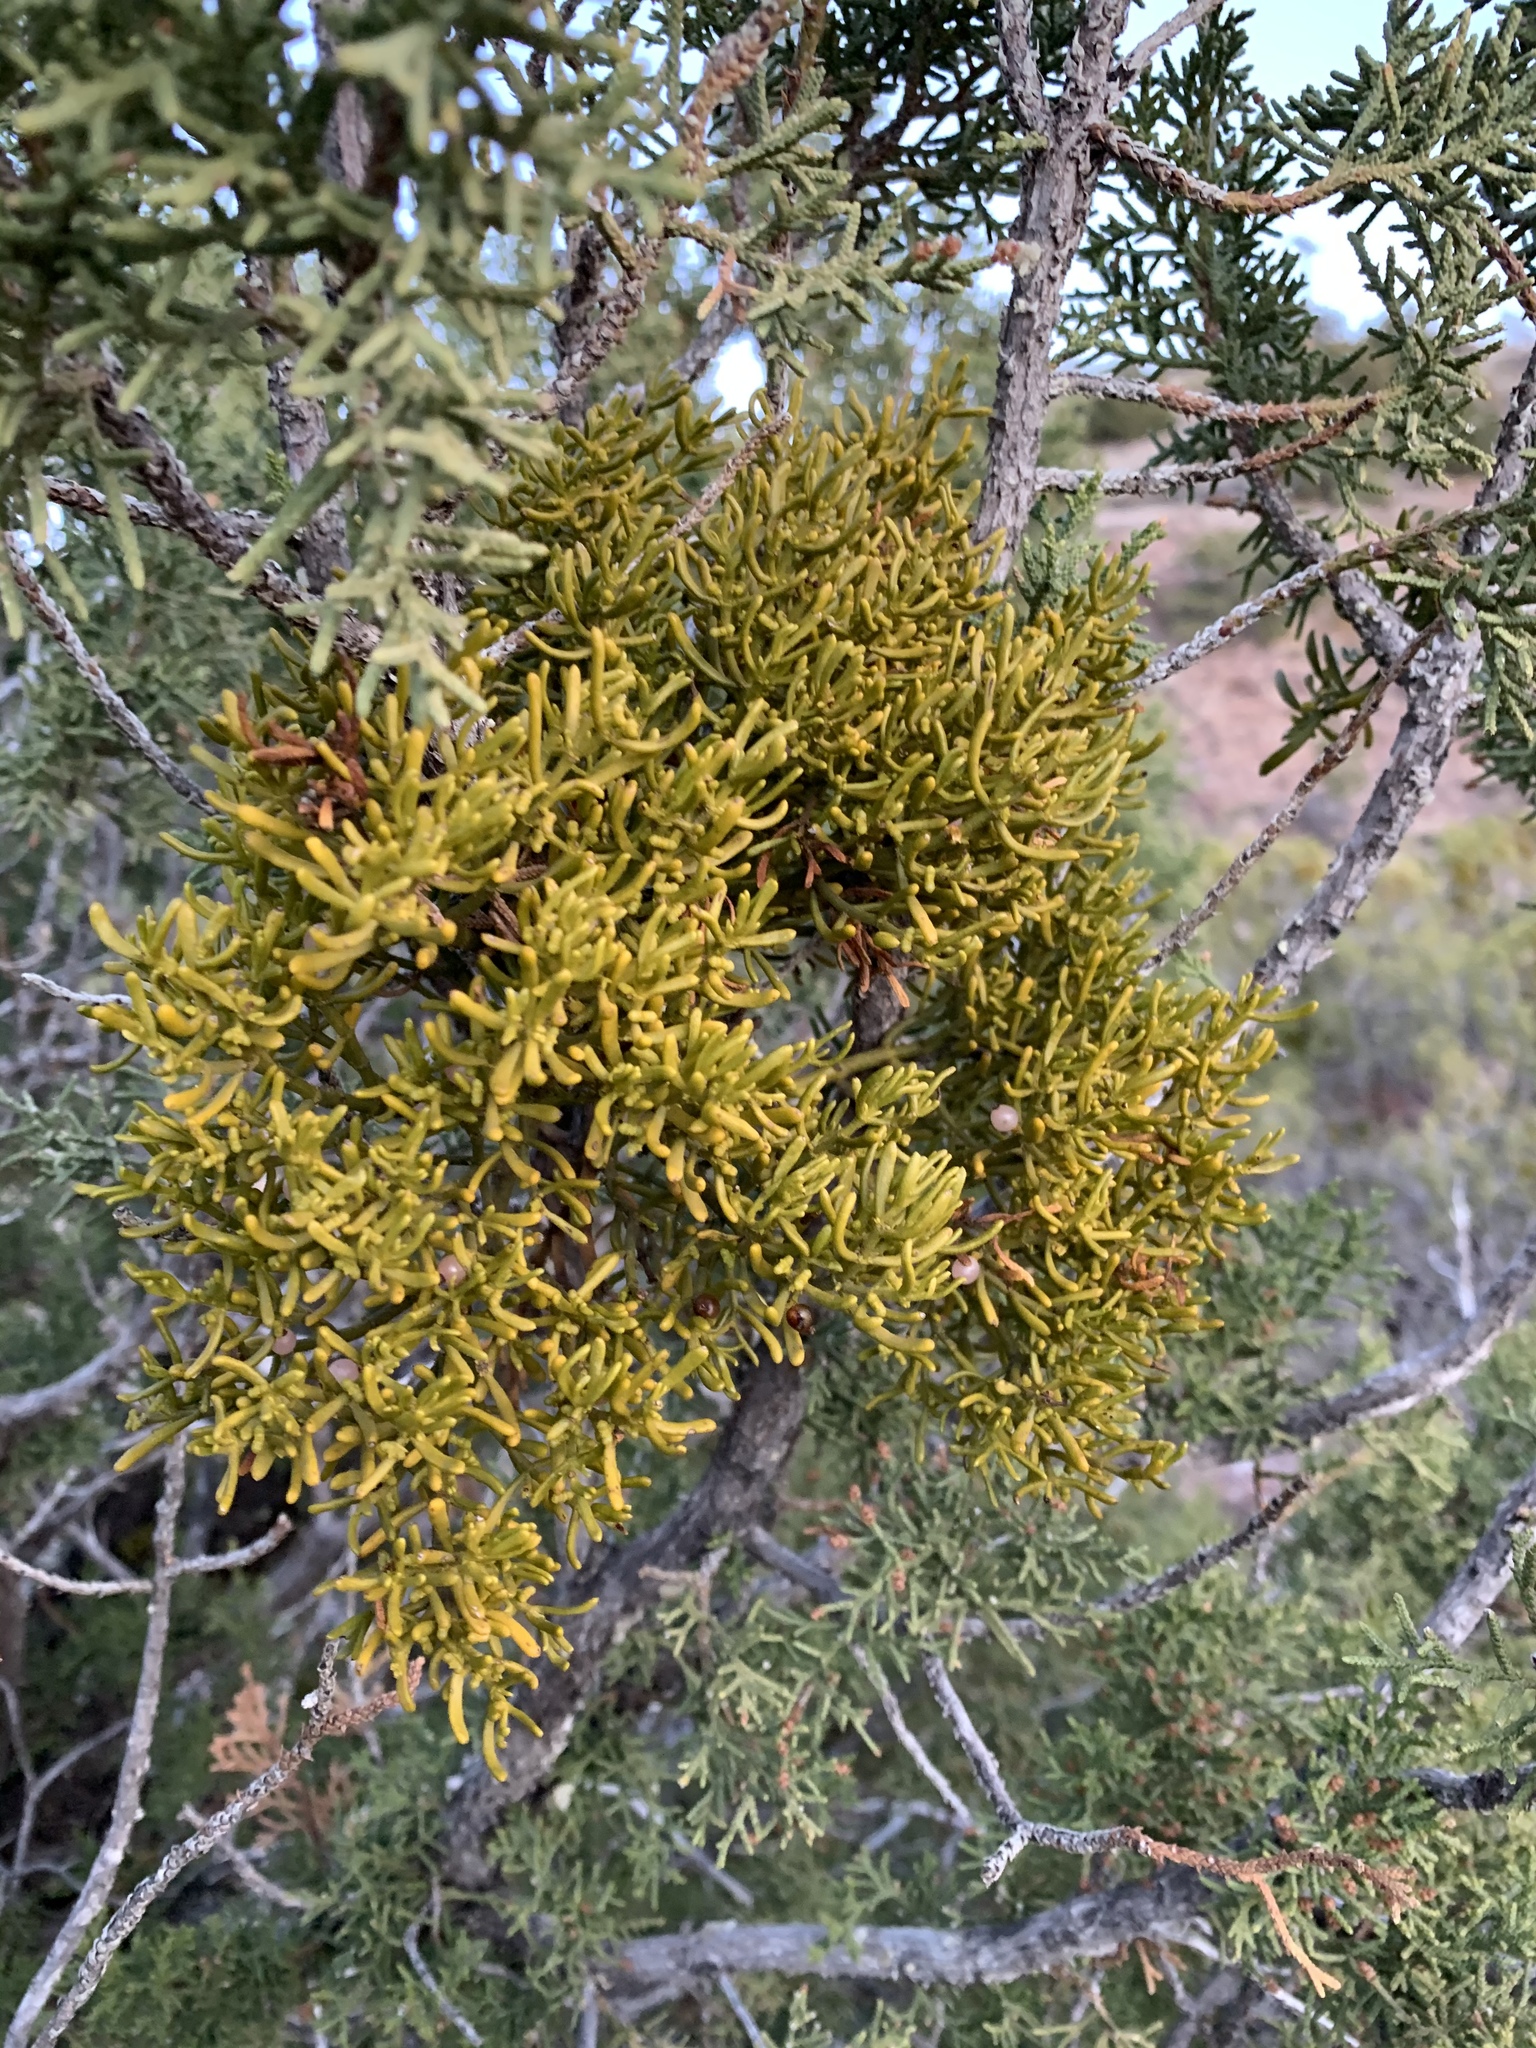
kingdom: Plantae
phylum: Tracheophyta
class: Magnoliopsida
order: Santalales
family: Viscaceae
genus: Phoradendron
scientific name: Phoradendron hawksworthii
